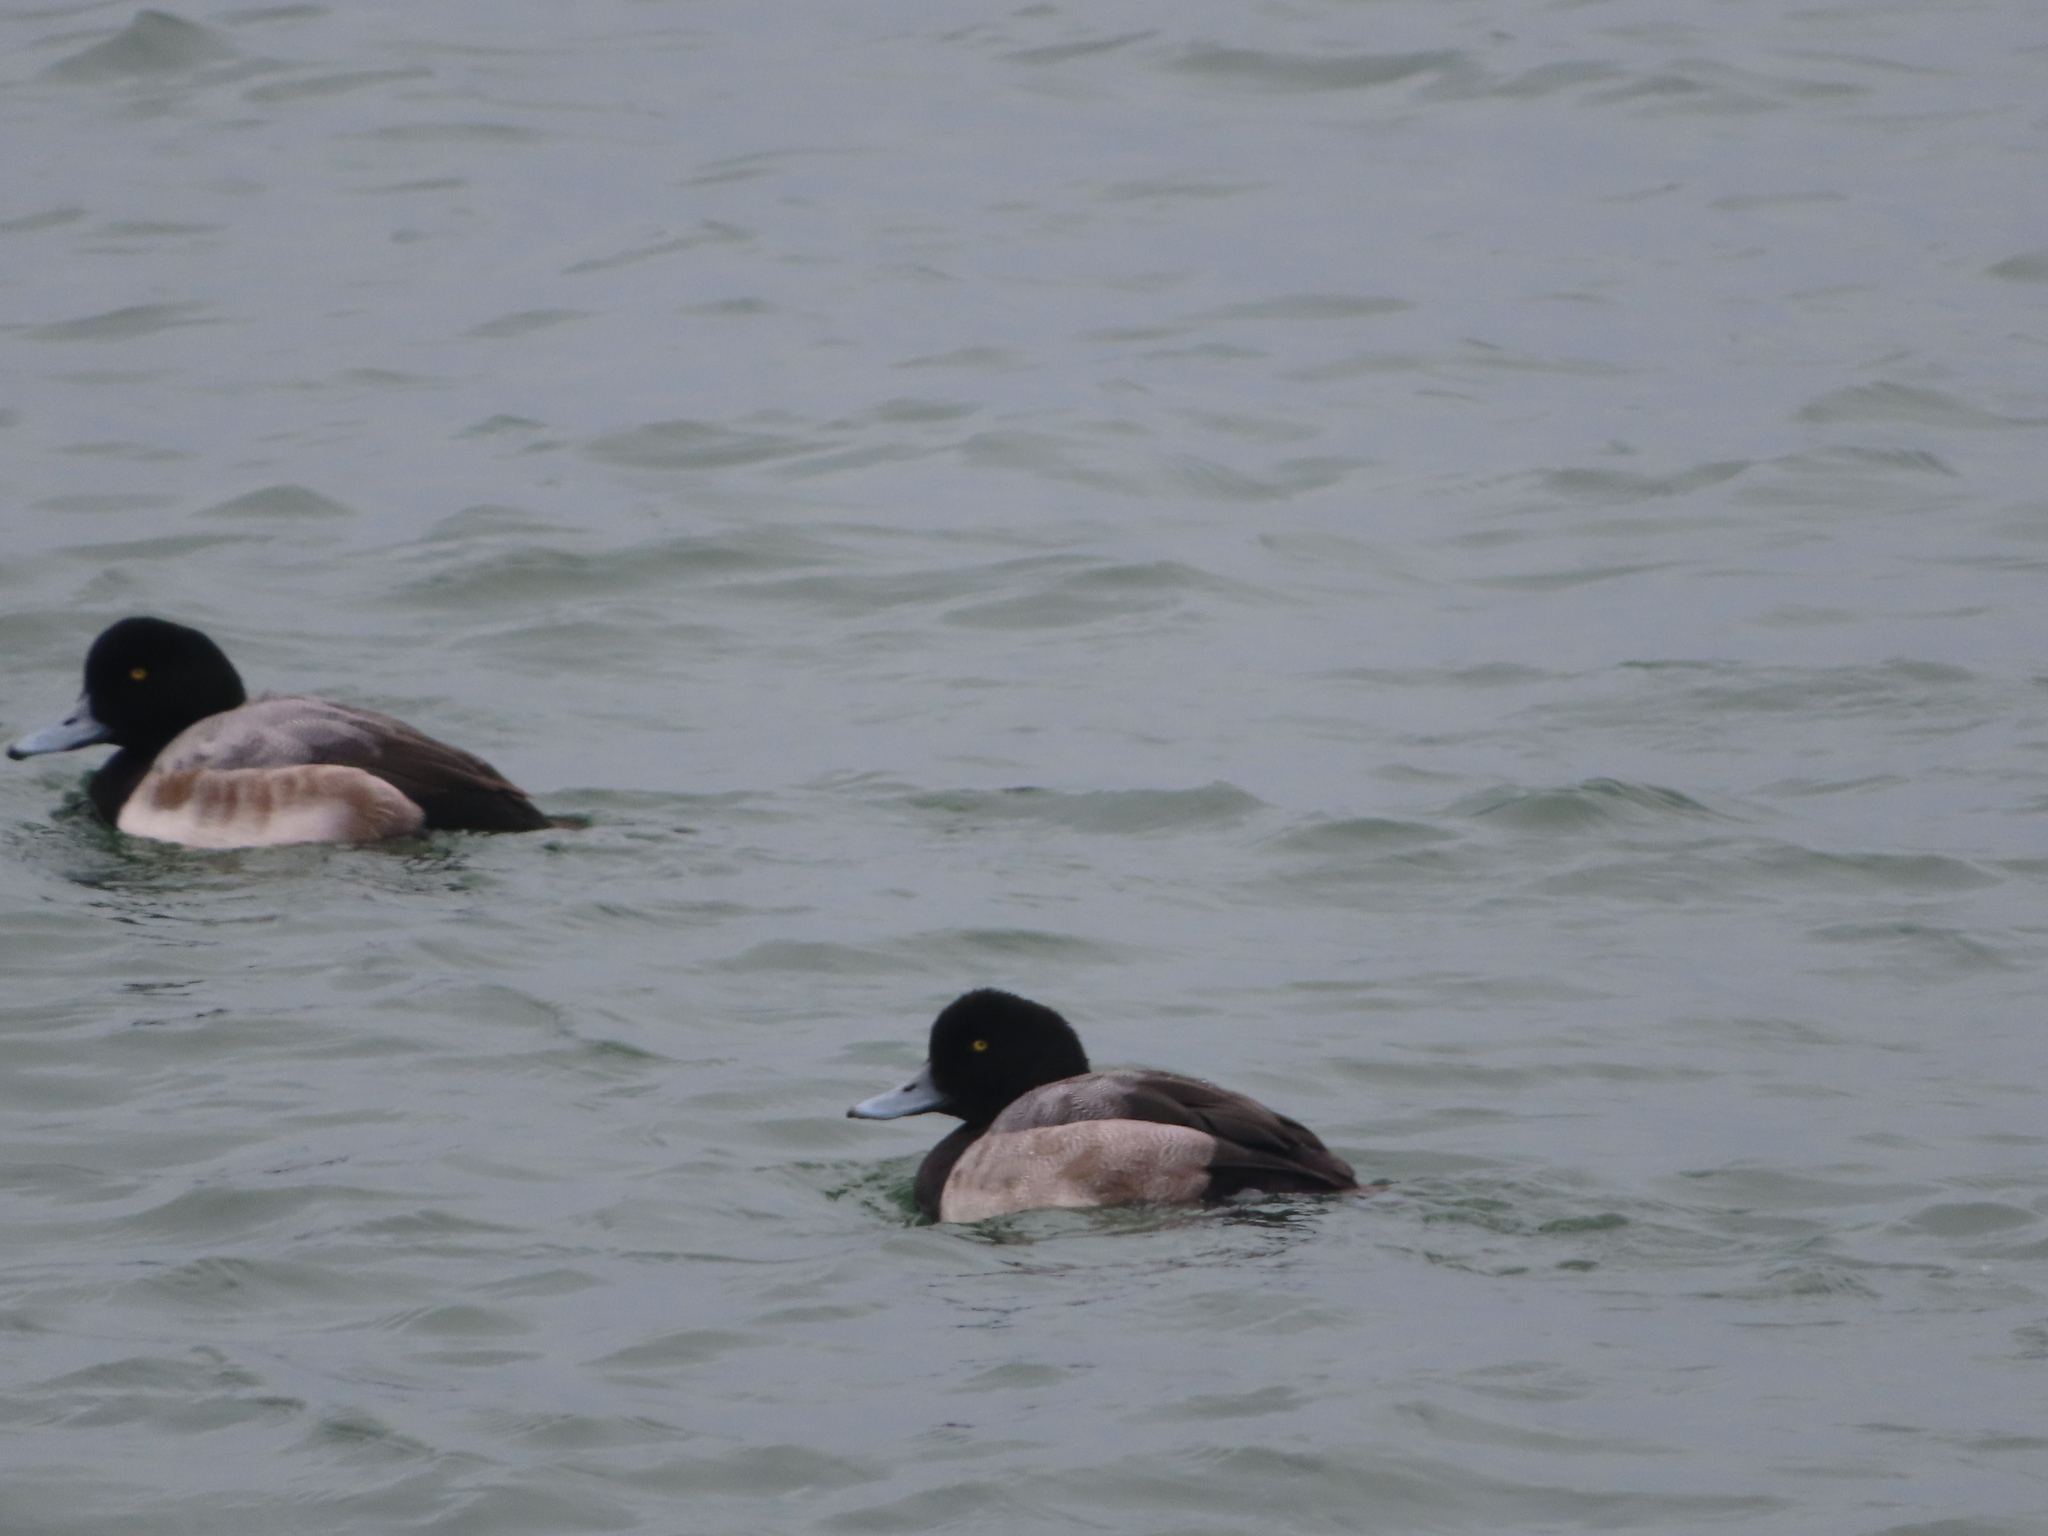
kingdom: Animalia
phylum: Chordata
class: Aves
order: Anseriformes
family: Anatidae
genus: Aythya
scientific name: Aythya marila
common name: Greater scaup
